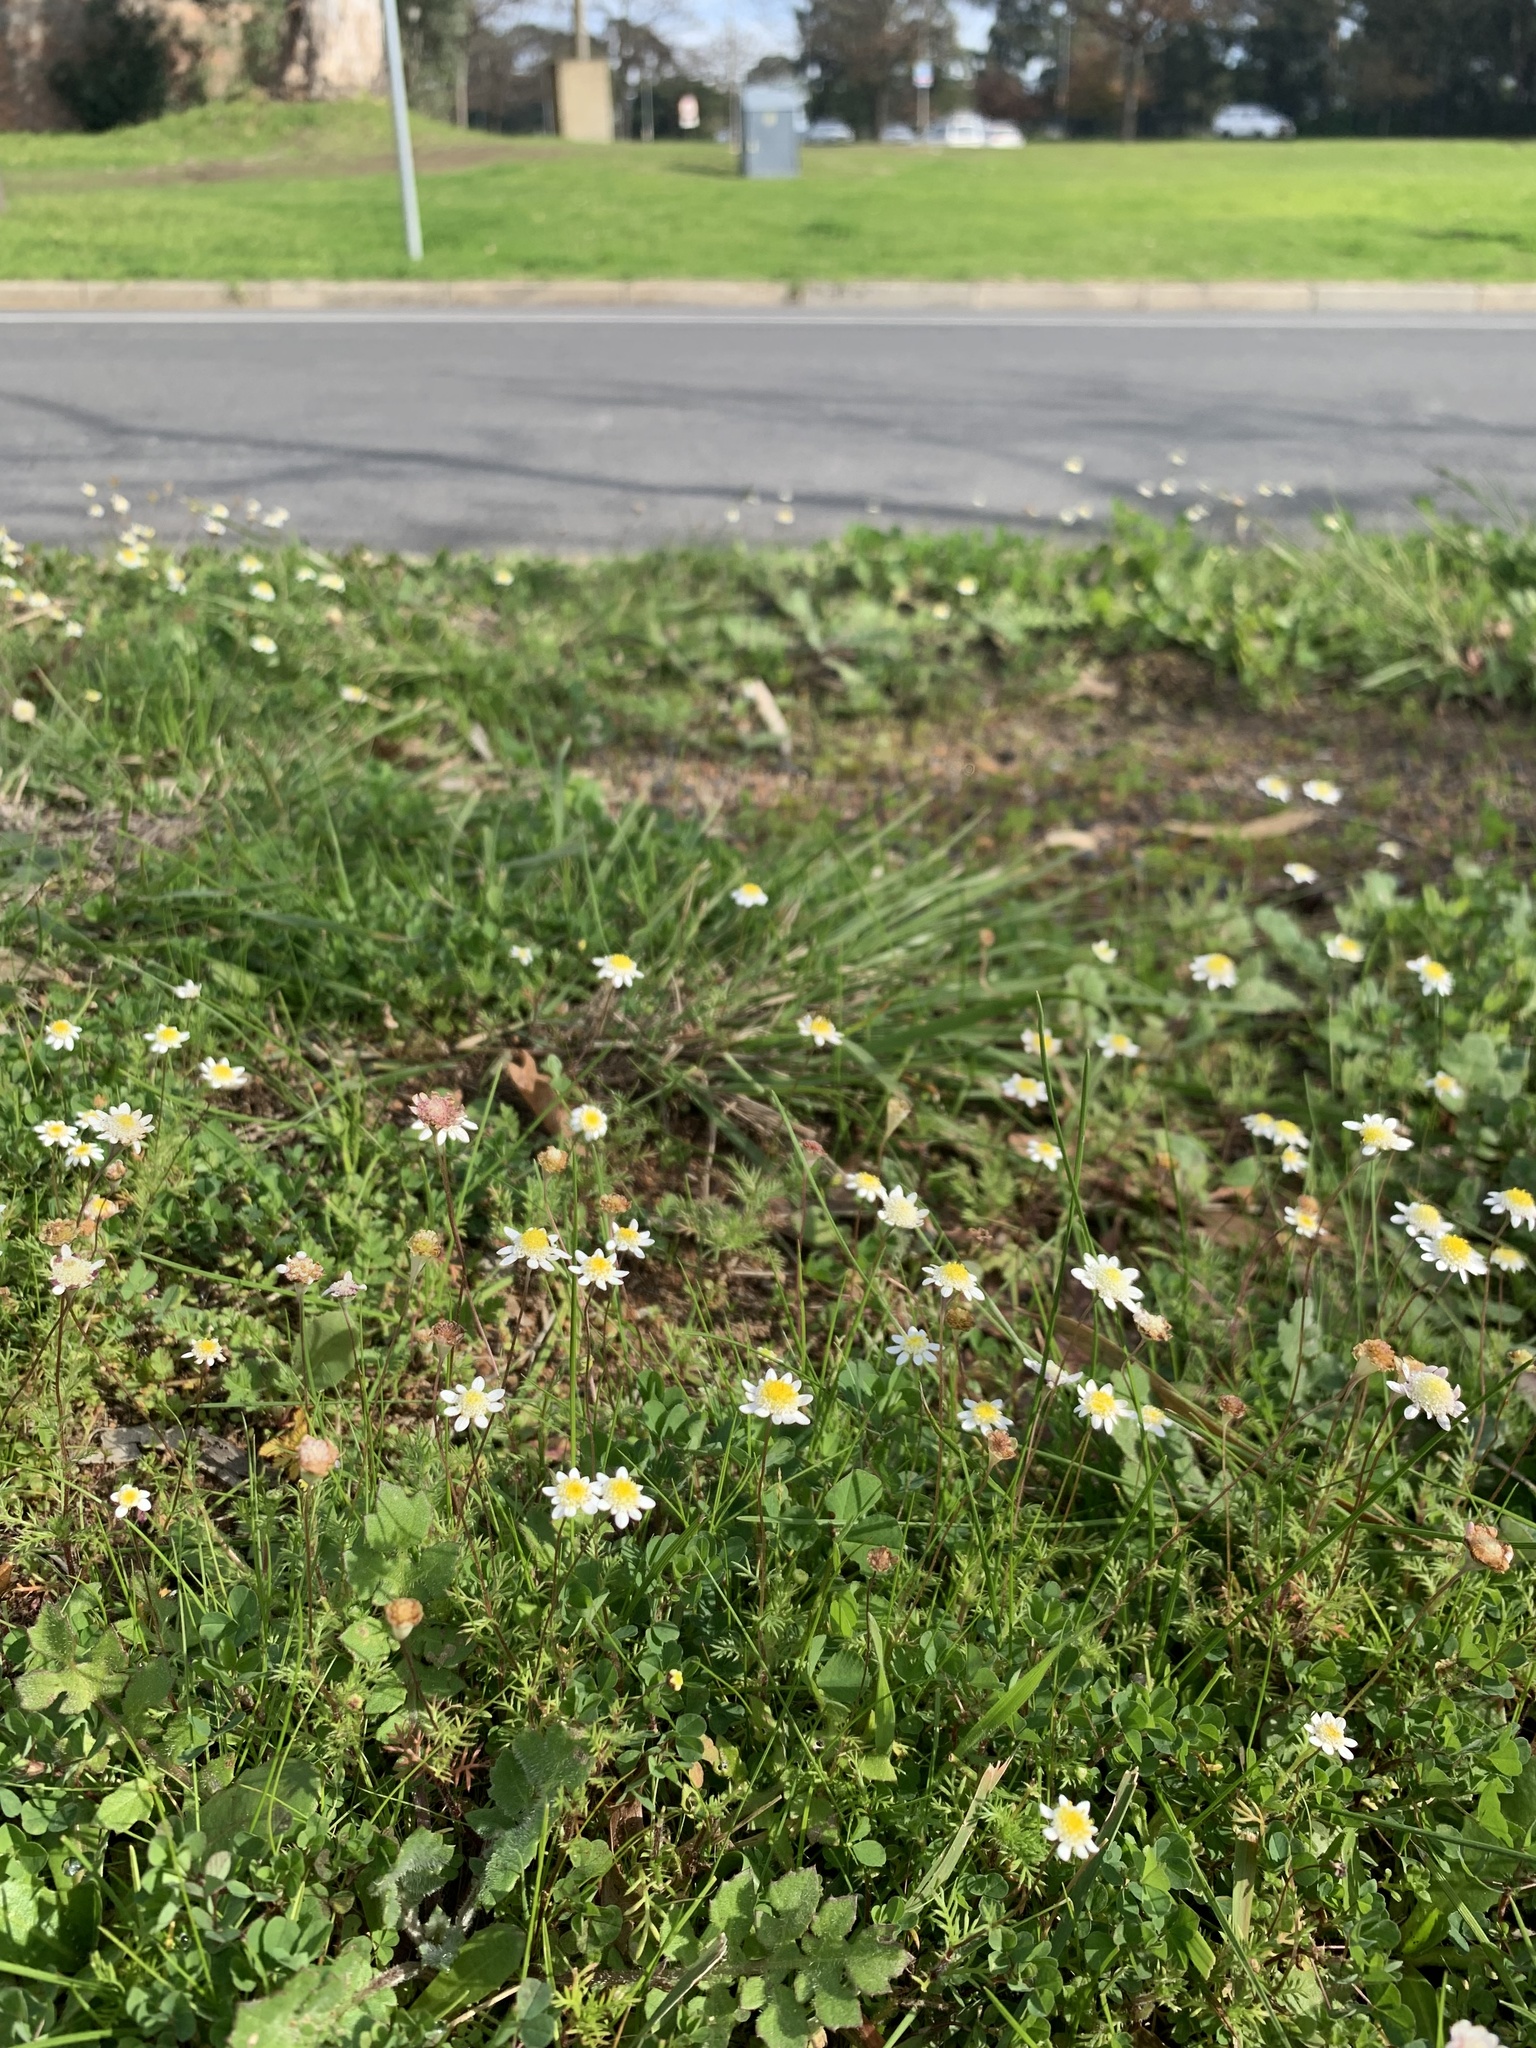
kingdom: Plantae
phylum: Tracheophyta
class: Magnoliopsida
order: Asterales
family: Asteraceae
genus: Cotula
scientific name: Cotula turbinata
